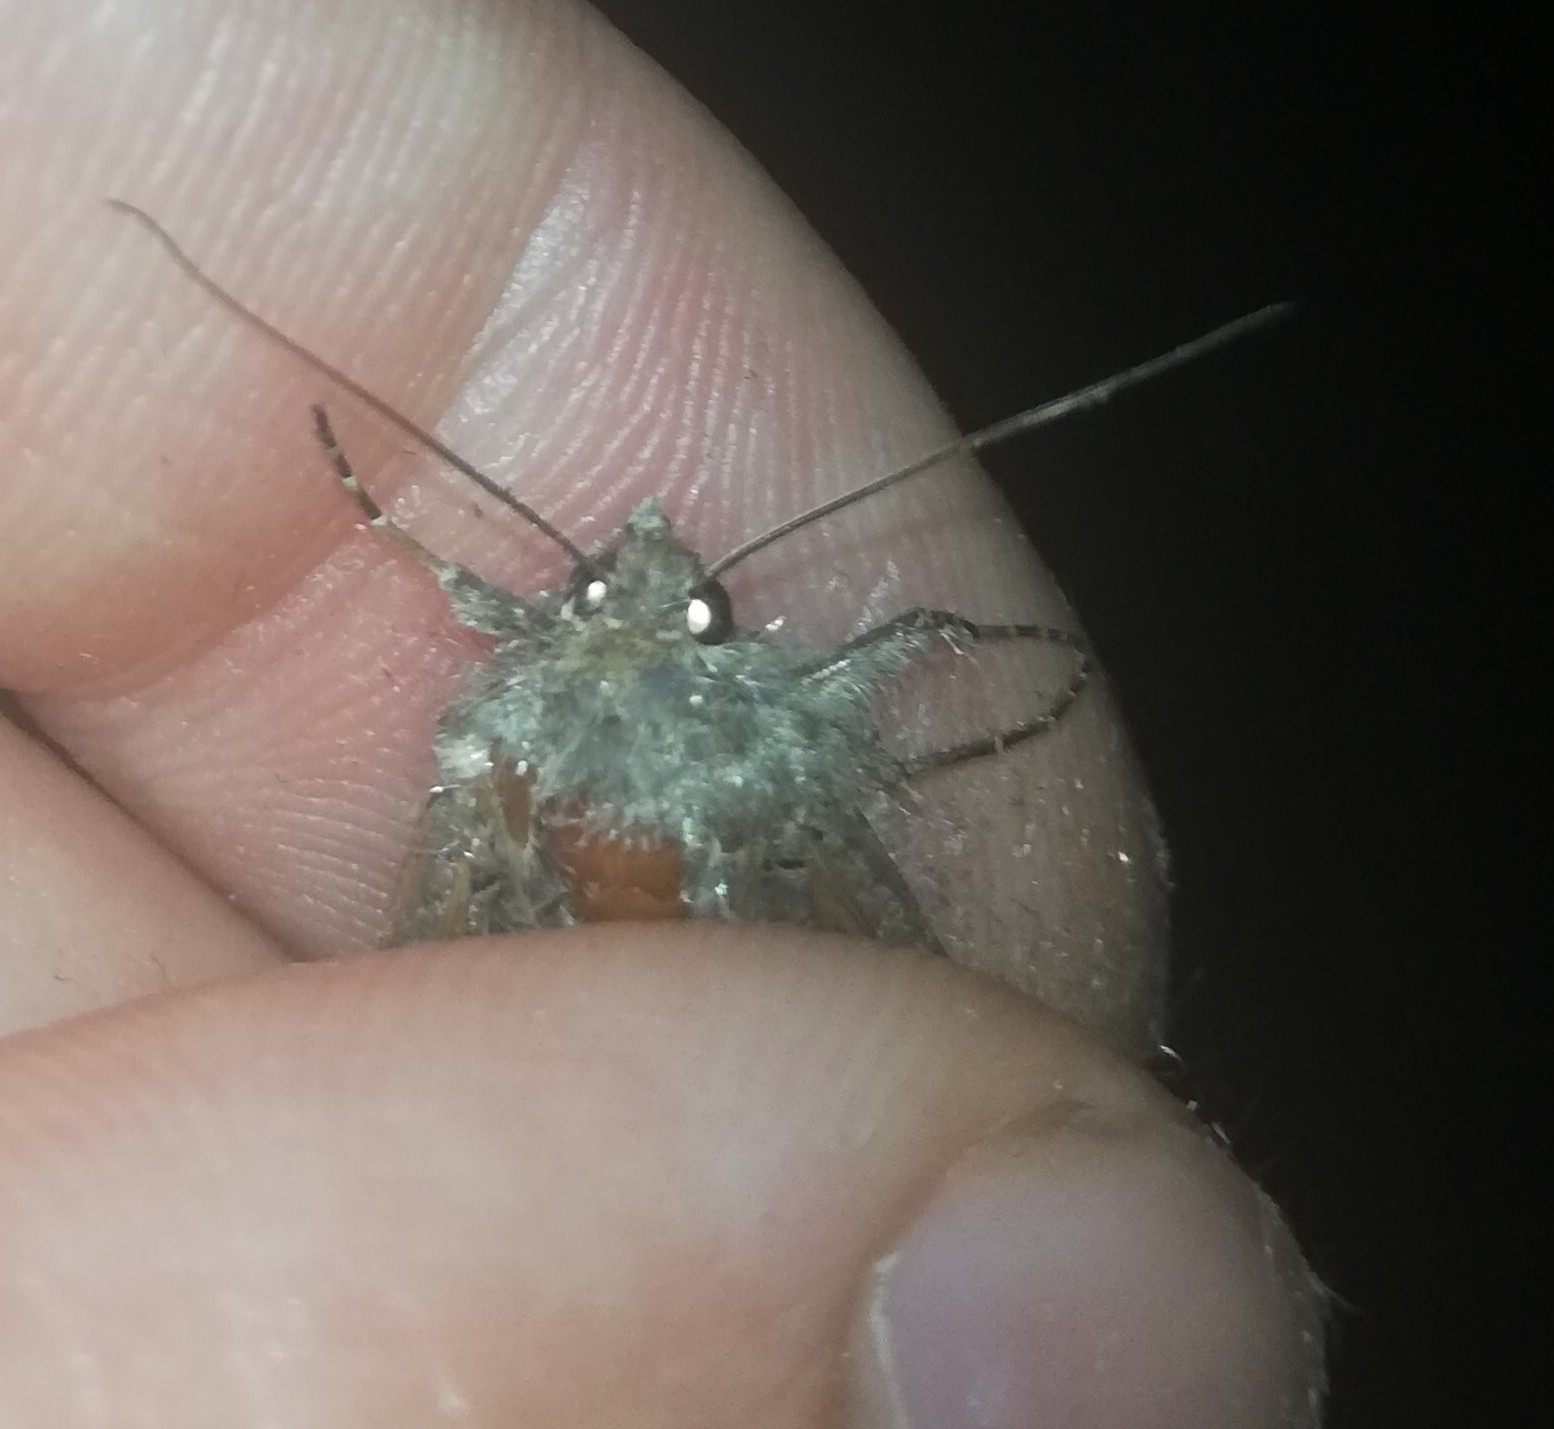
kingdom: Animalia
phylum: Arthropoda
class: Insecta
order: Lepidoptera
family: Noctuidae
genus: Autographa
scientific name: Autographa gamma
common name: Silver y
